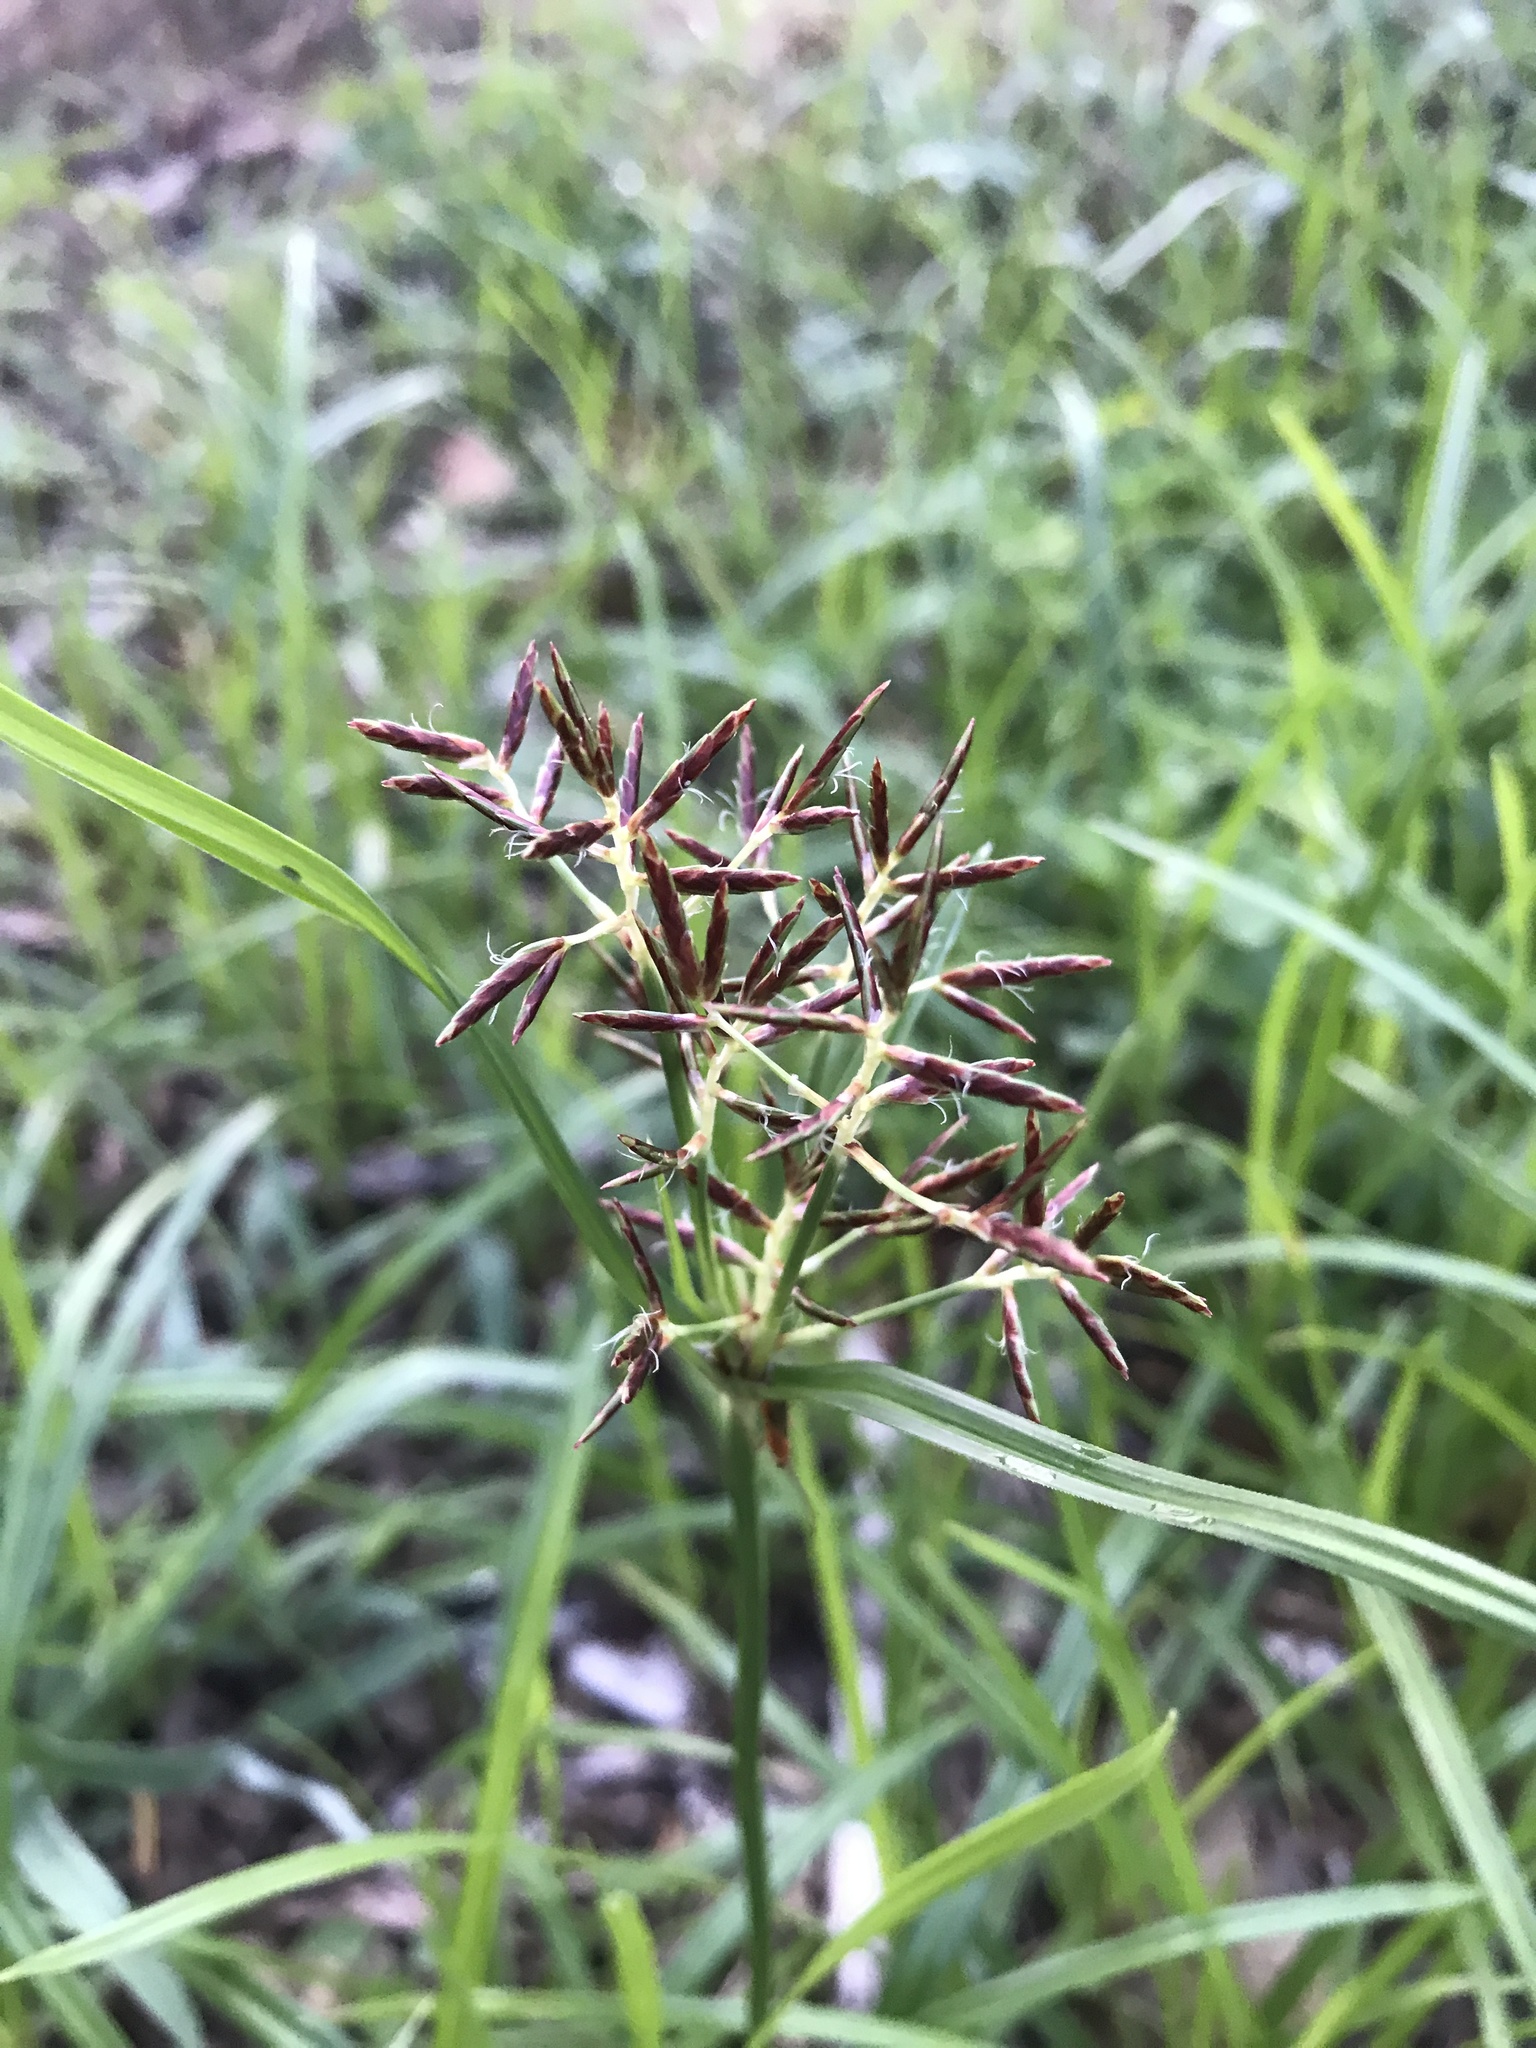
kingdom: Plantae
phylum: Tracheophyta
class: Liliopsida
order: Poales
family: Cyperaceae
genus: Cyperus
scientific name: Cyperus rotundus
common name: Nutgrass
